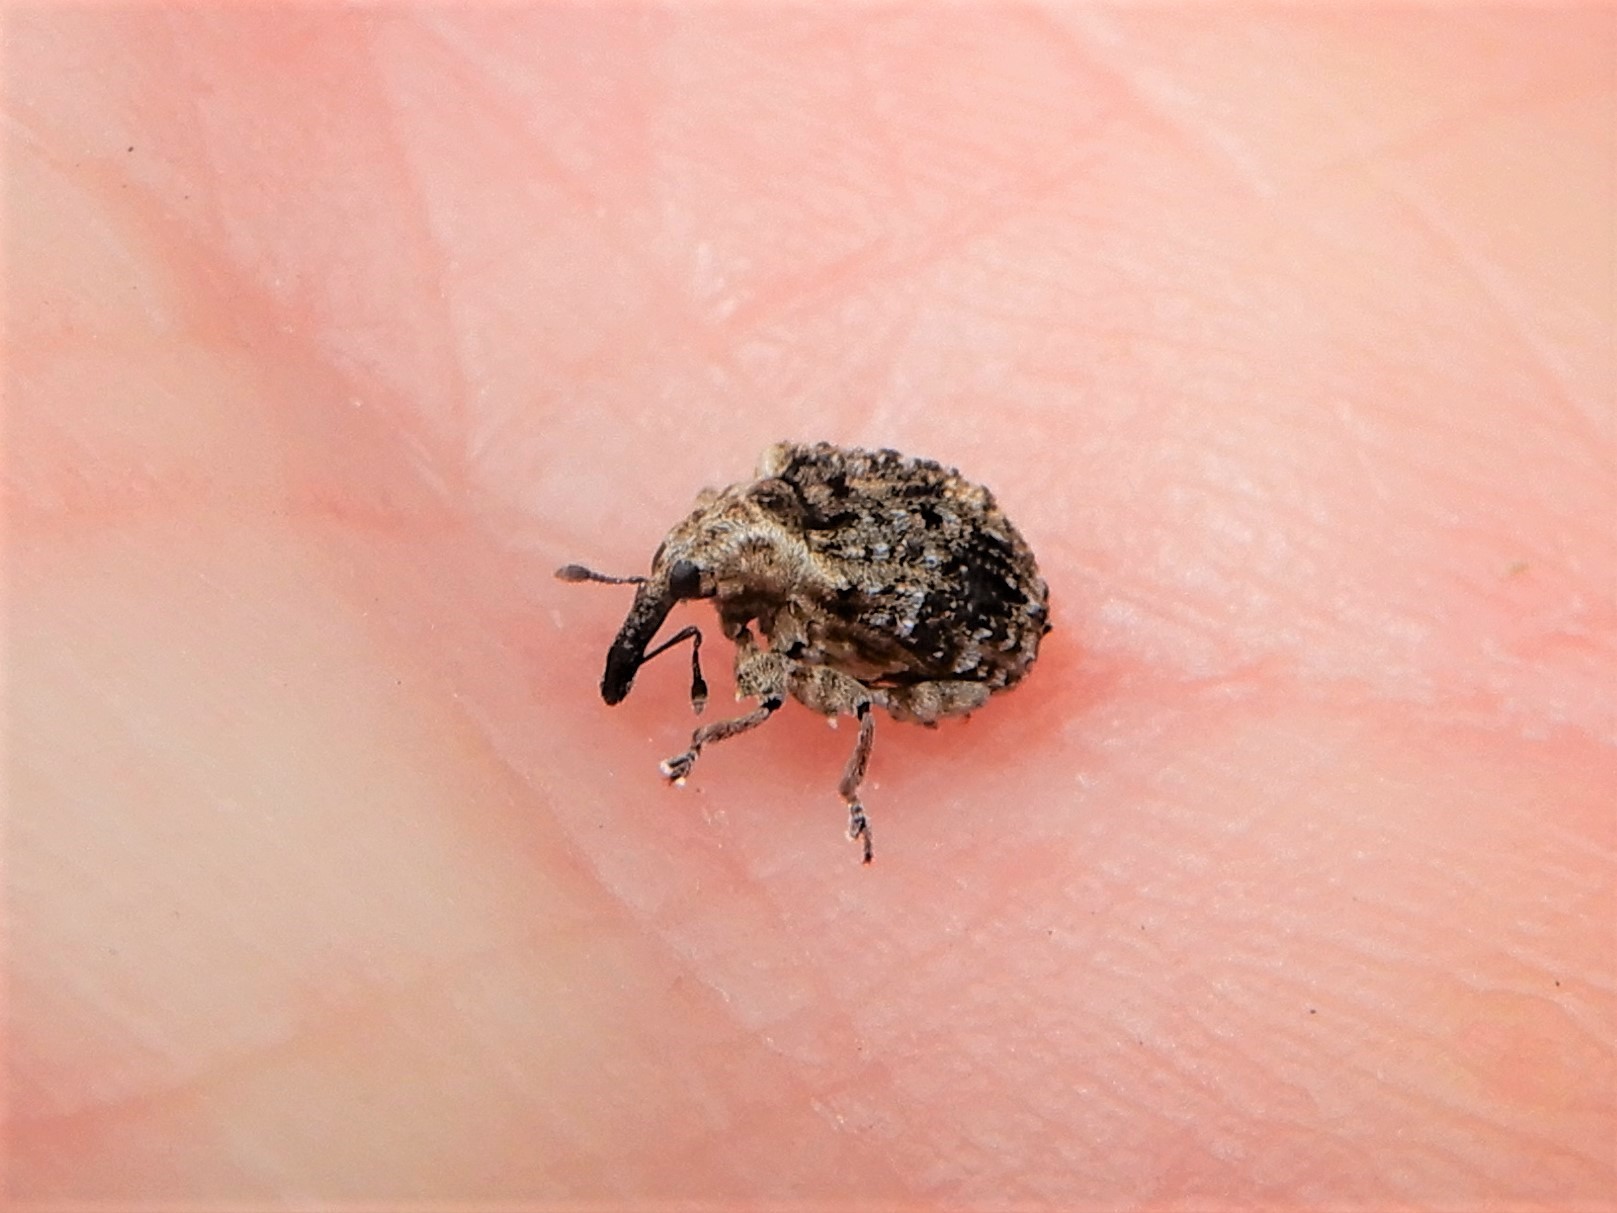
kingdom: Animalia
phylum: Arthropoda
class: Insecta
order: Coleoptera
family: Curculionidae
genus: Cleopus
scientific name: Cleopus japonicus
